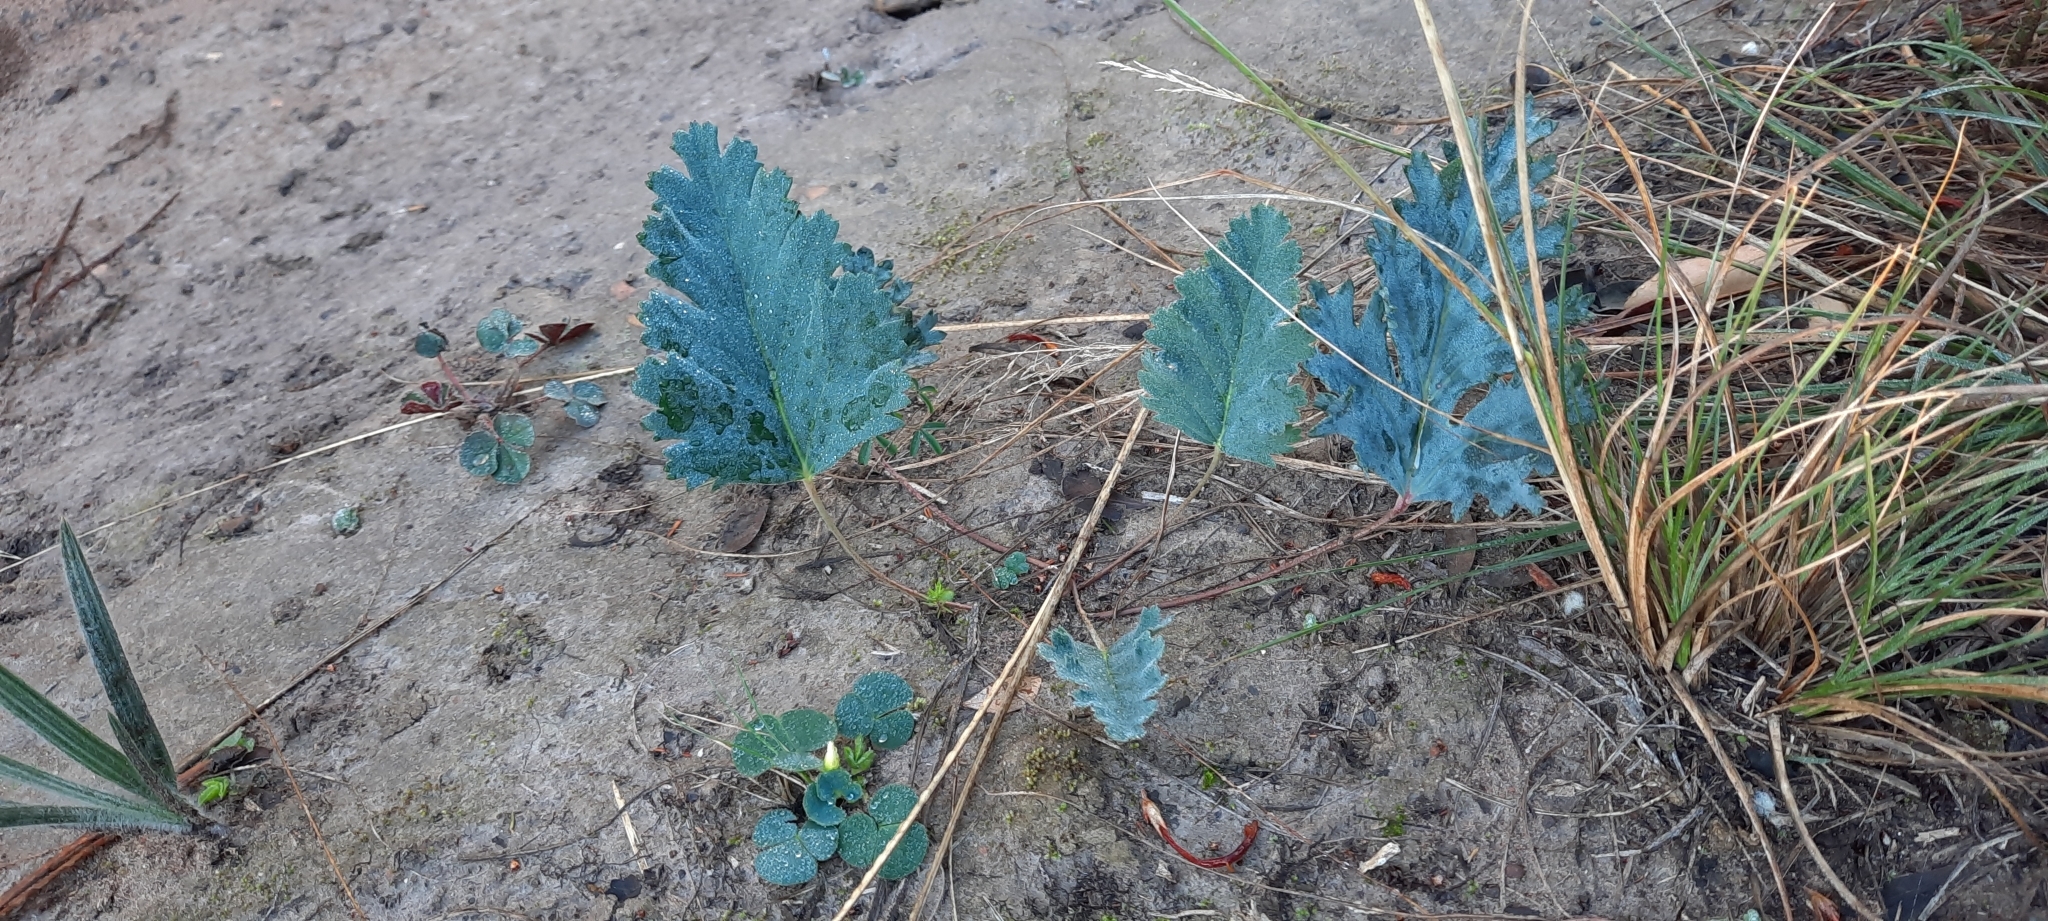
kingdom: Plantae
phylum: Tracheophyta
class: Magnoliopsida
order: Geraniales
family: Geraniaceae
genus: Pelargonium
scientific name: Pelargonium pulverulentum
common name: Powdered-leaf pelargonium
